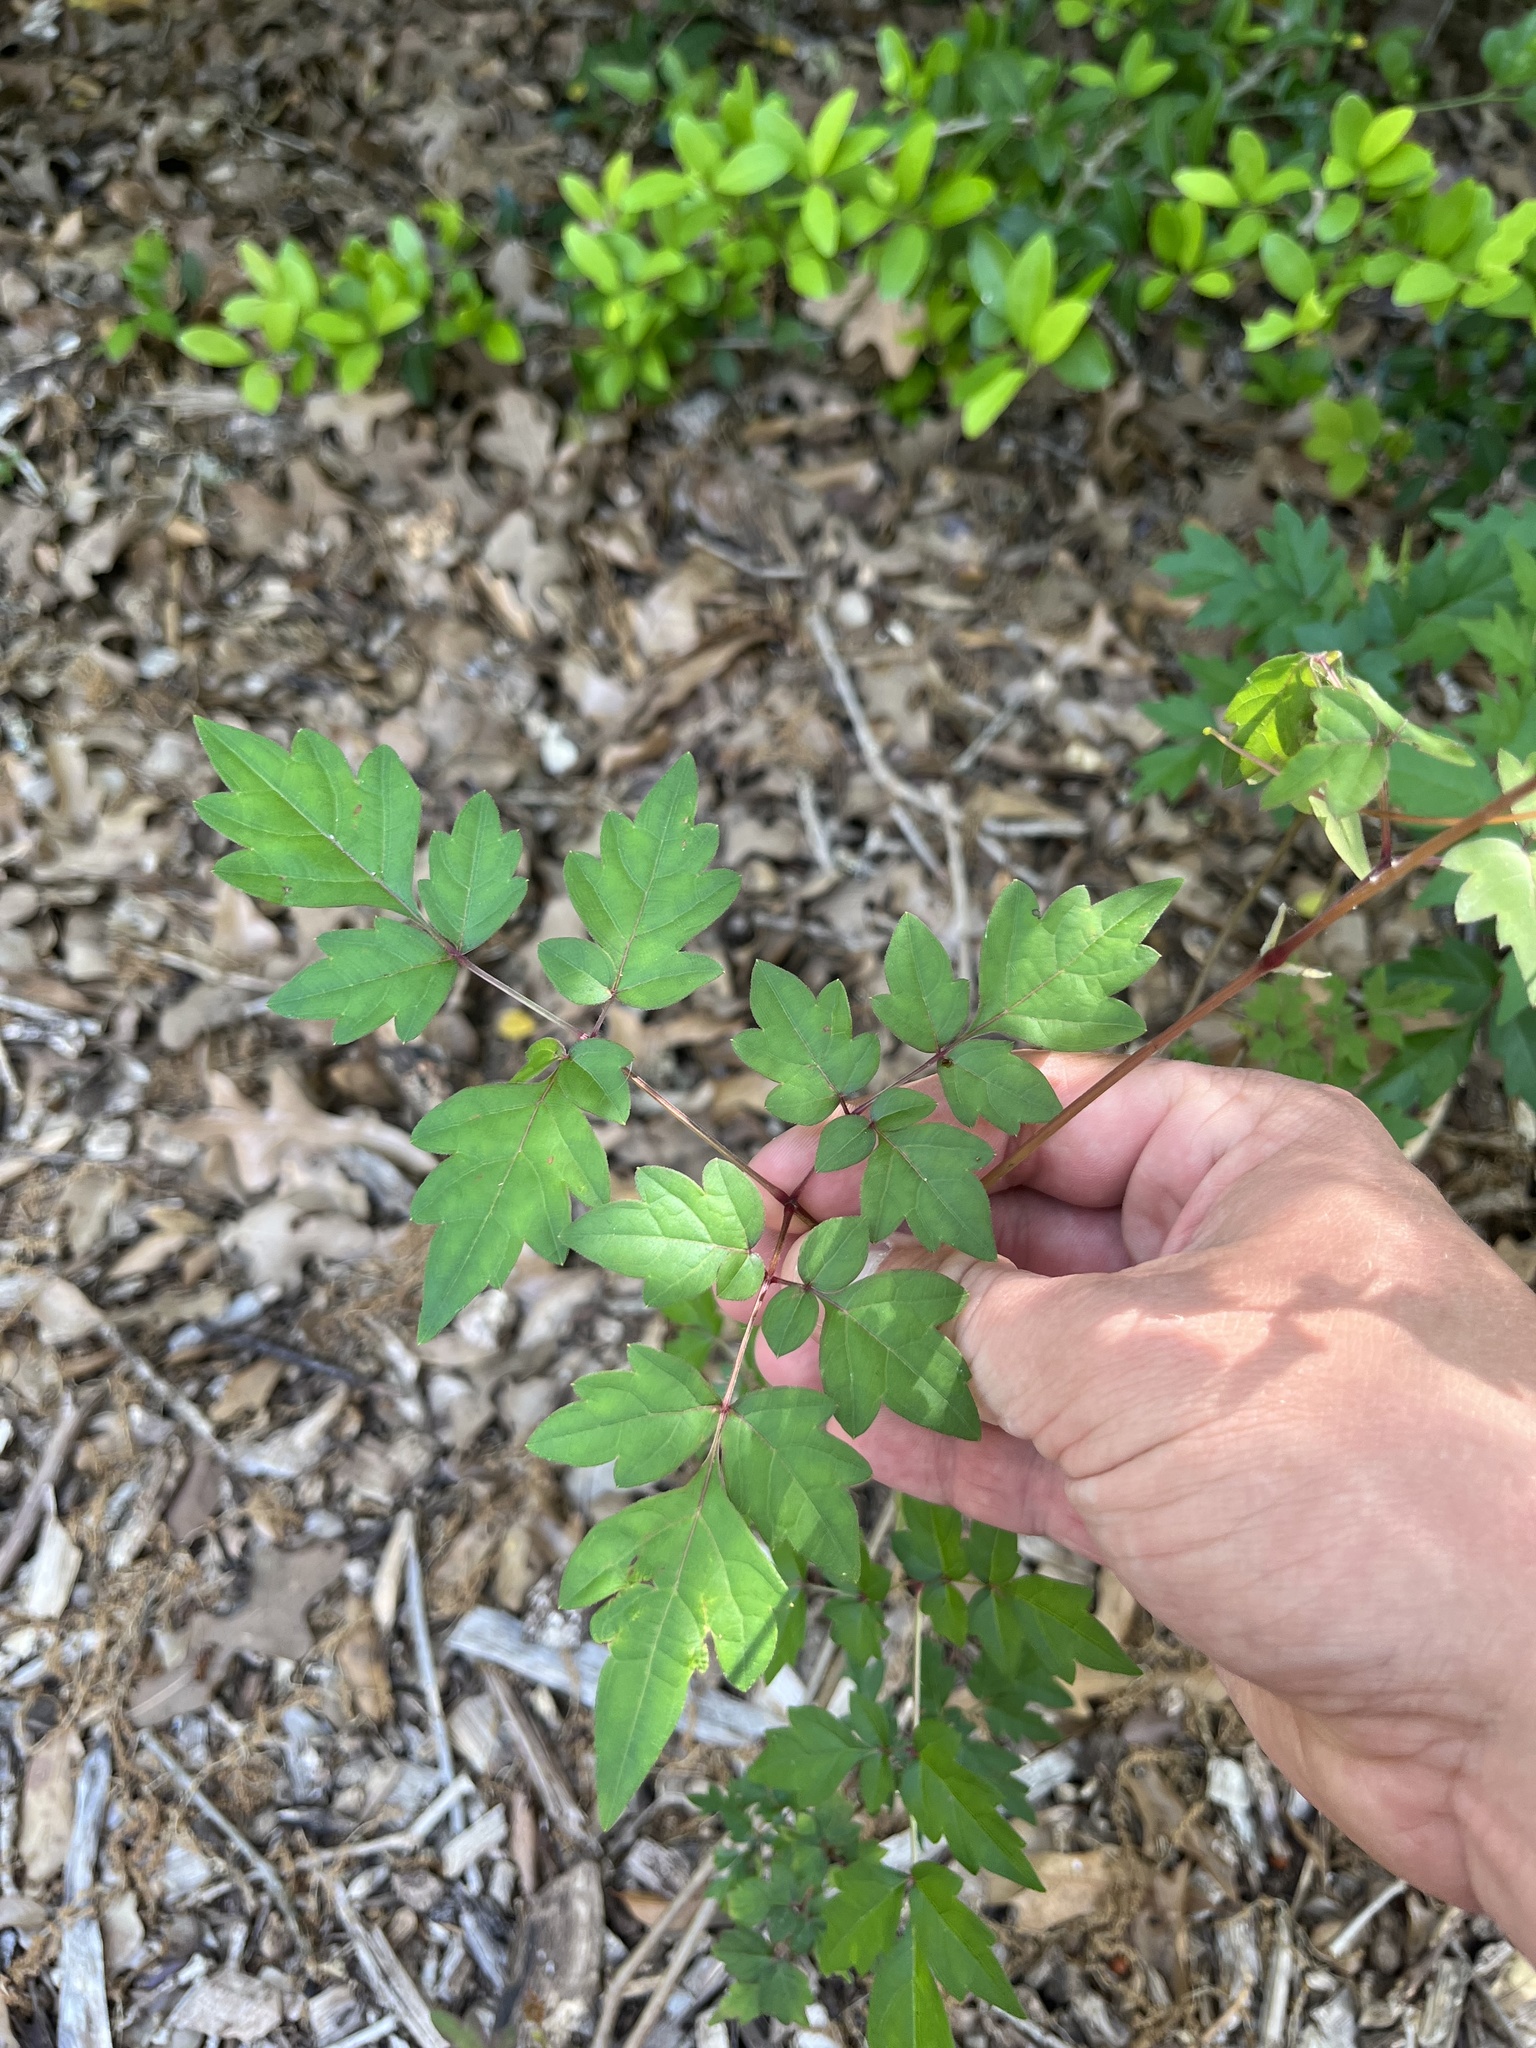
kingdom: Plantae
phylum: Tracheophyta
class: Magnoliopsida
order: Vitales
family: Vitaceae
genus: Nekemias
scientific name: Nekemias arborea
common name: Peppervine
